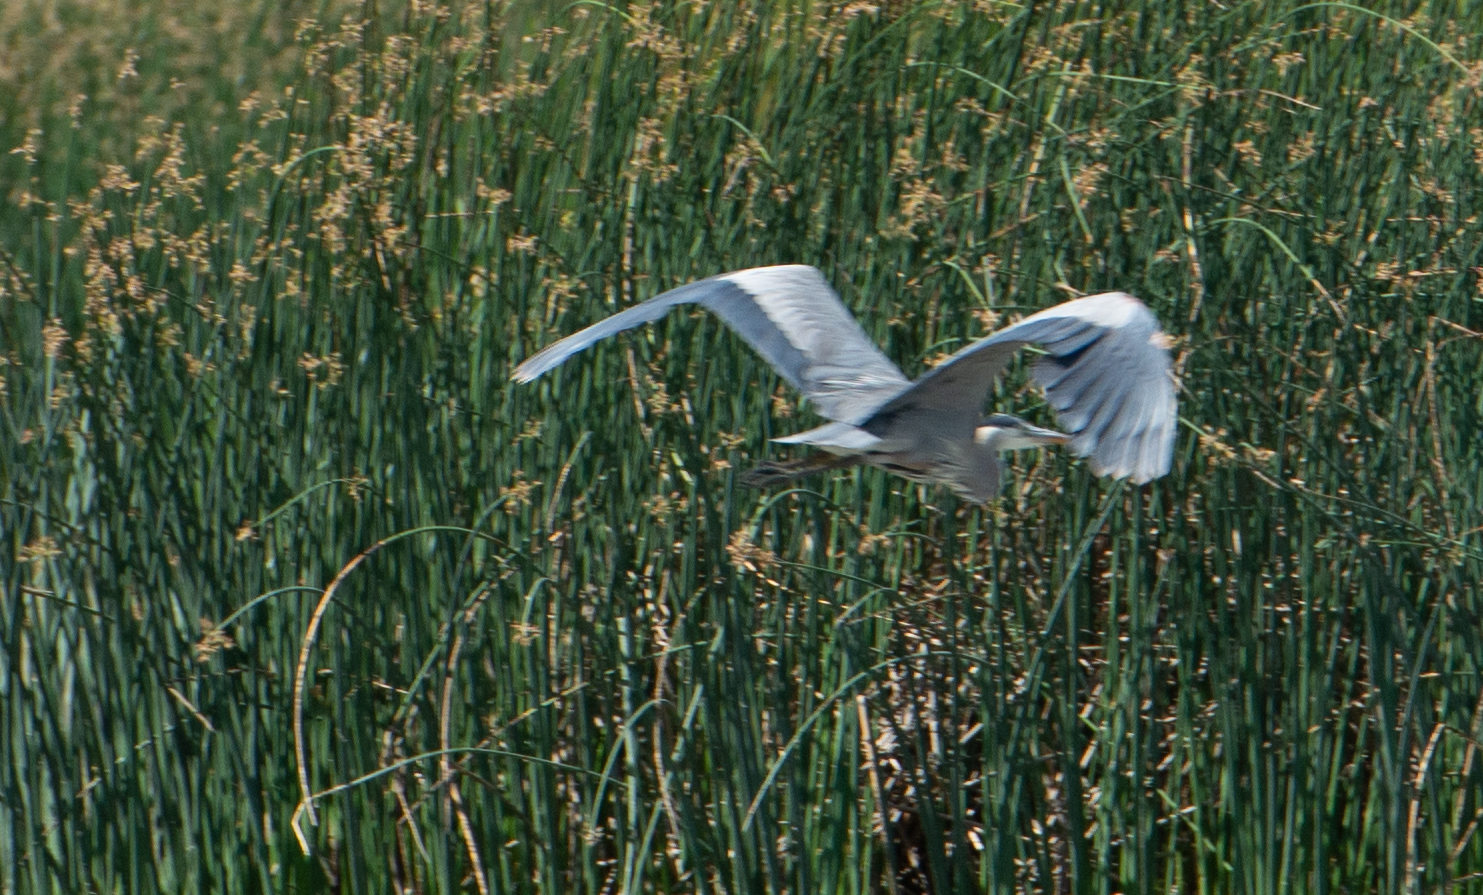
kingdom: Animalia
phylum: Chordata
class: Aves
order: Pelecaniformes
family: Ardeidae
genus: Ardea
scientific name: Ardea herodias
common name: Great blue heron
